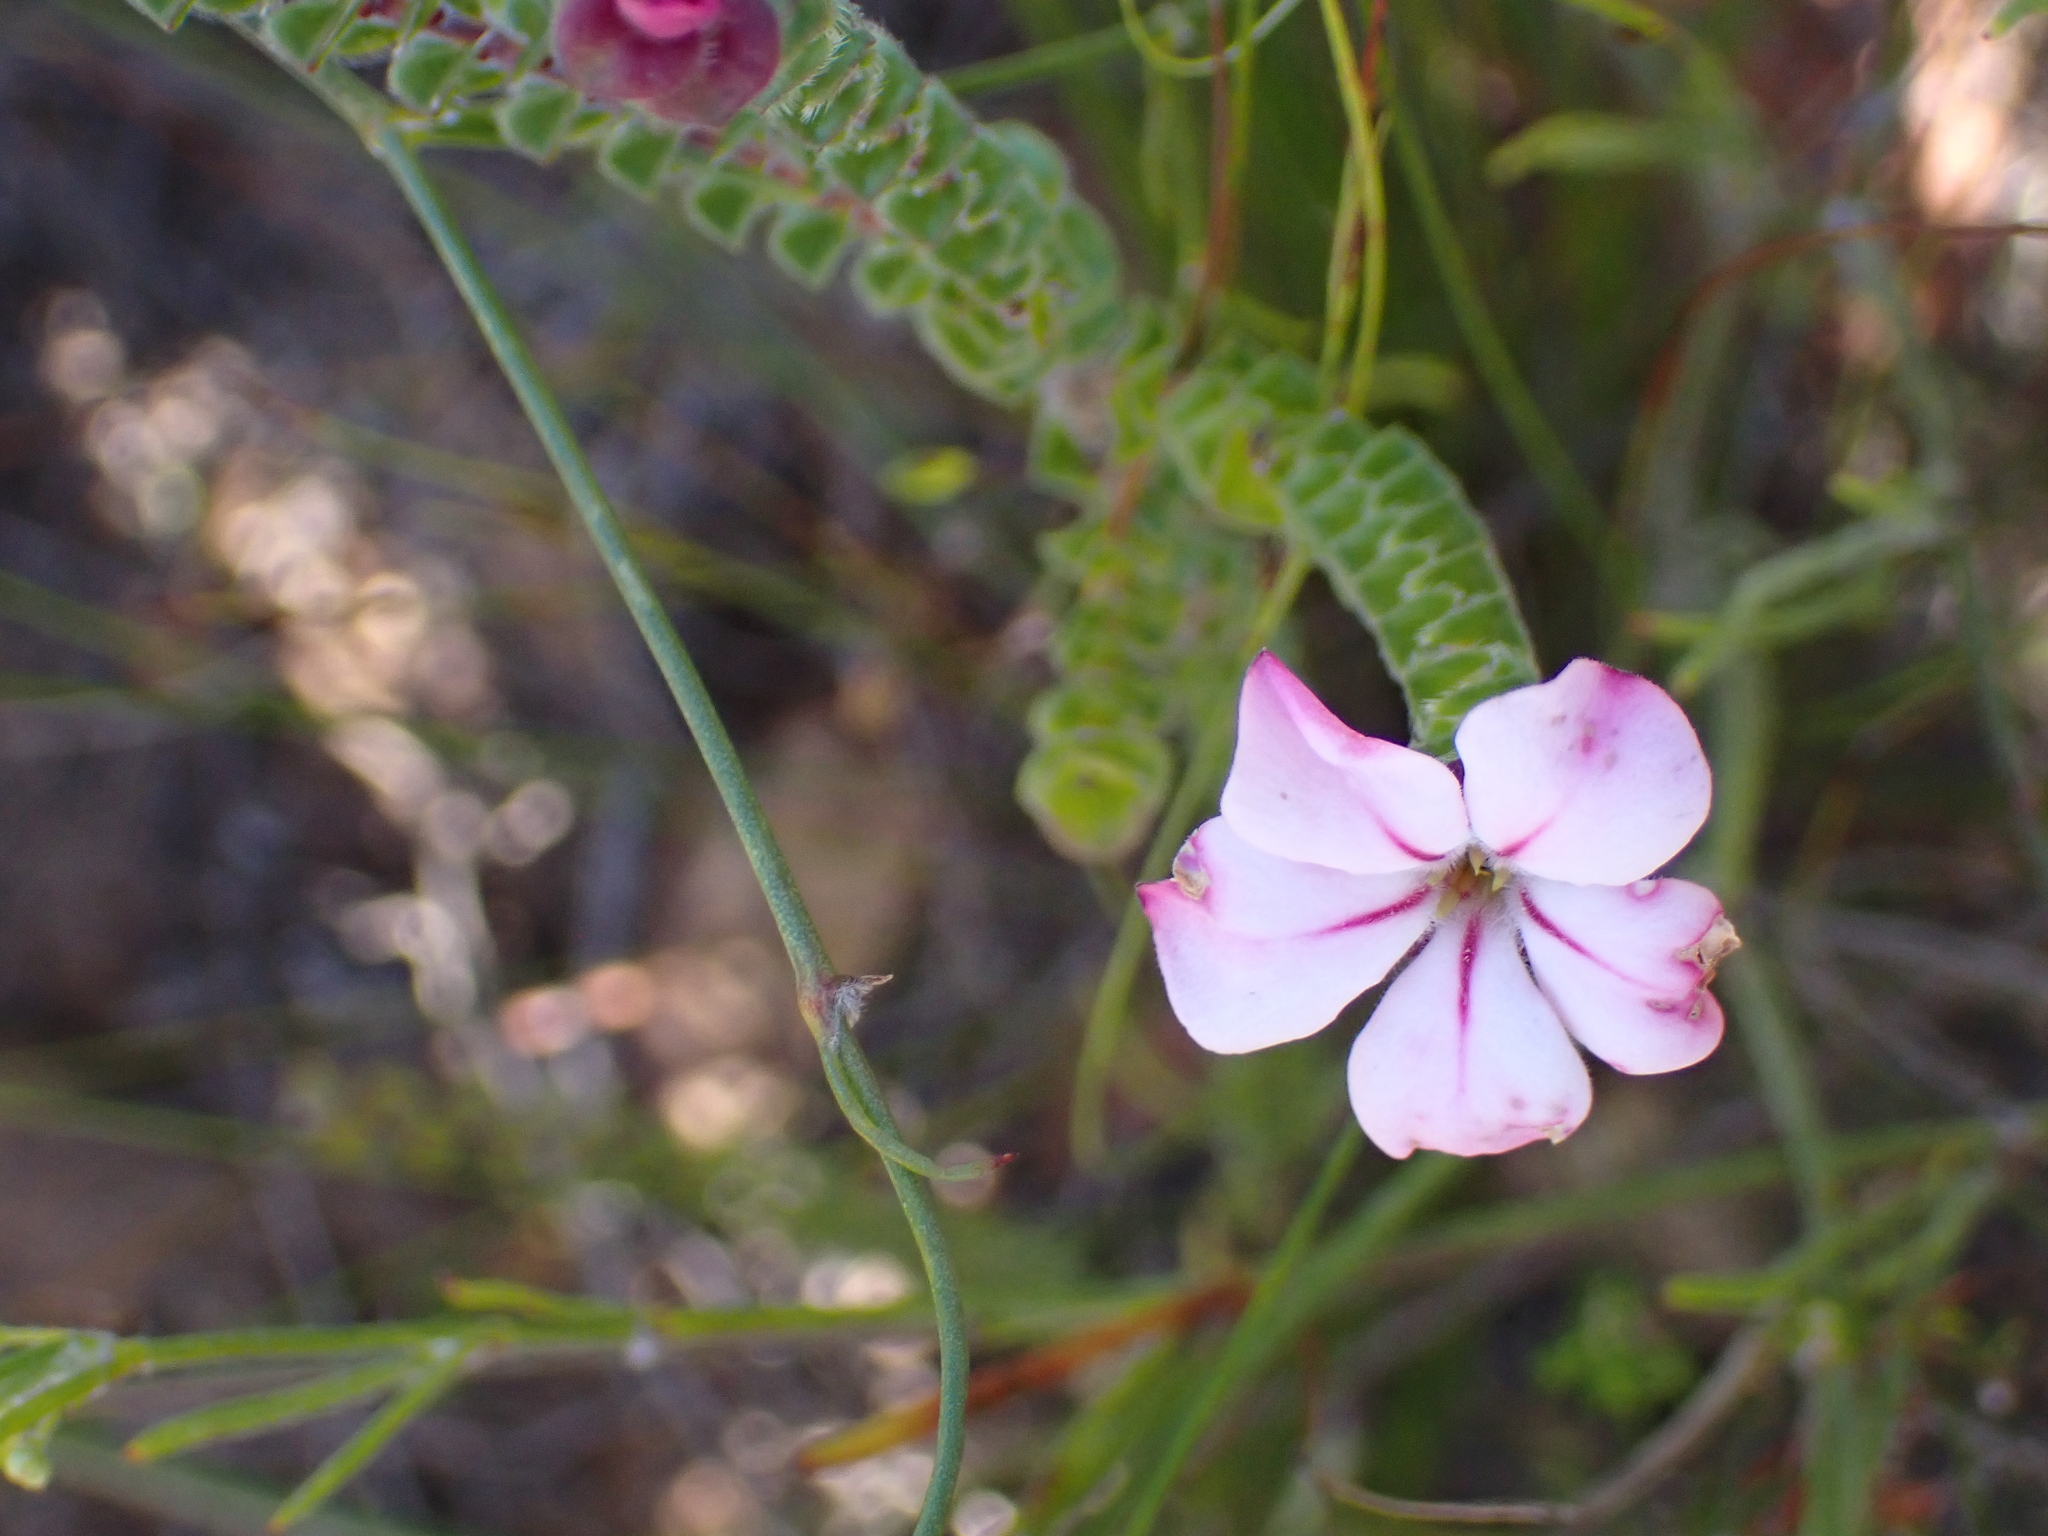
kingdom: Plantae
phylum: Tracheophyta
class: Magnoliopsida
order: Sapindales
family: Rutaceae
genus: Acmadenia
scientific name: Acmadenia tetragona
